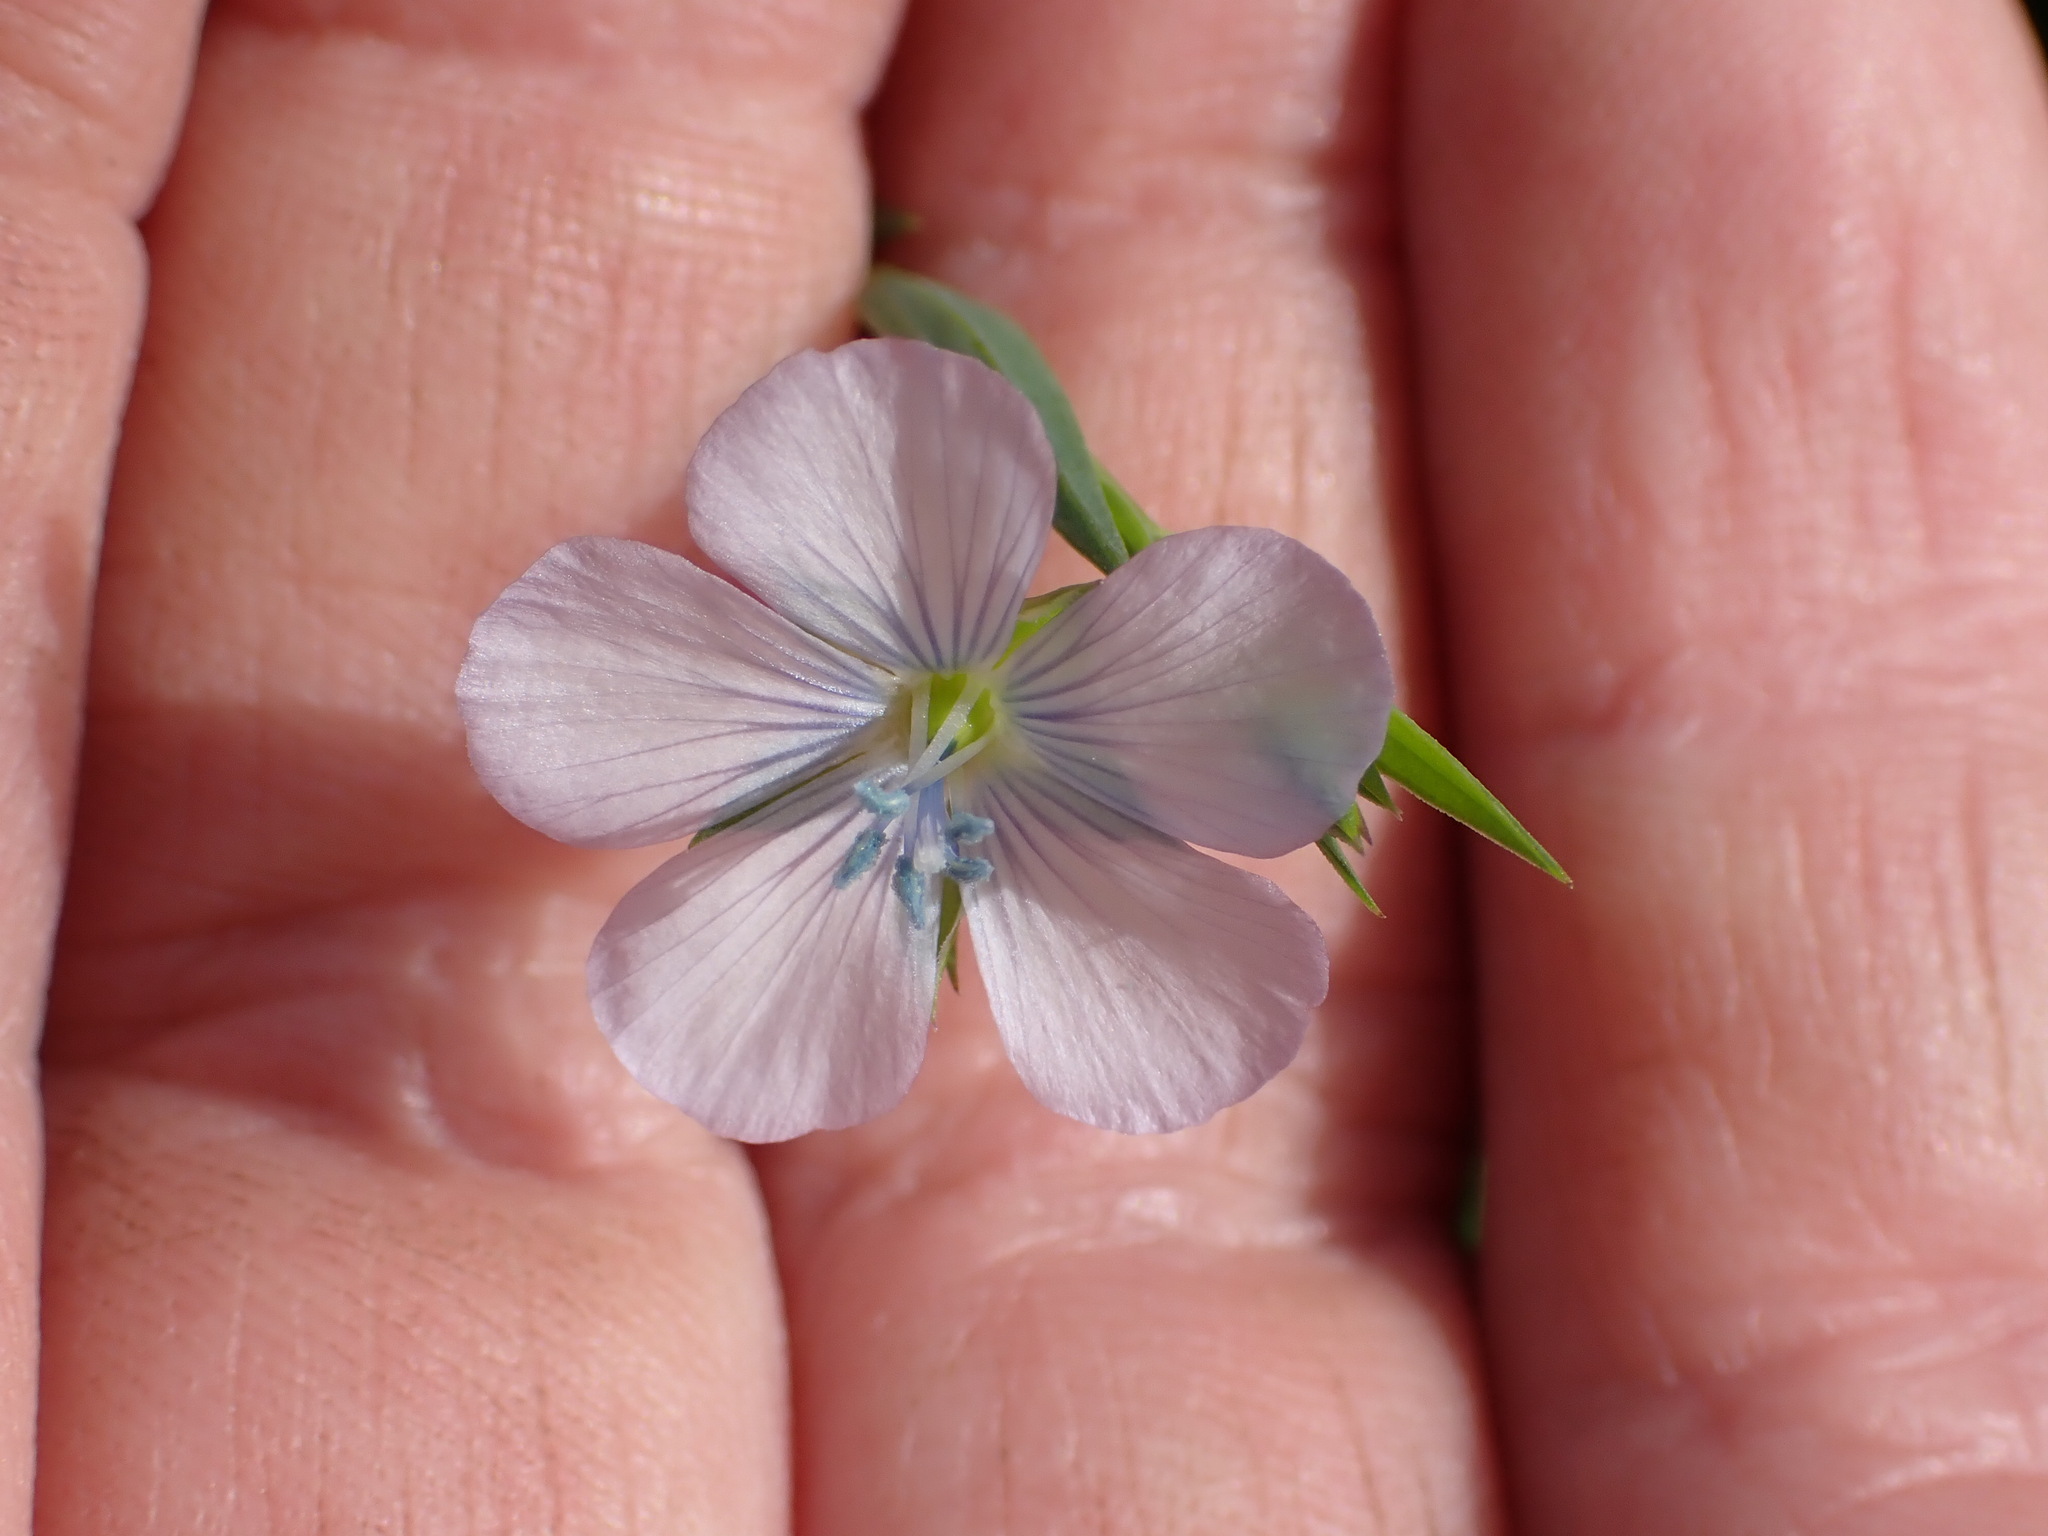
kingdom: Plantae
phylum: Tracheophyta
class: Magnoliopsida
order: Malpighiales
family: Linaceae
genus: Linum
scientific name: Linum bienne
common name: Pale flax
